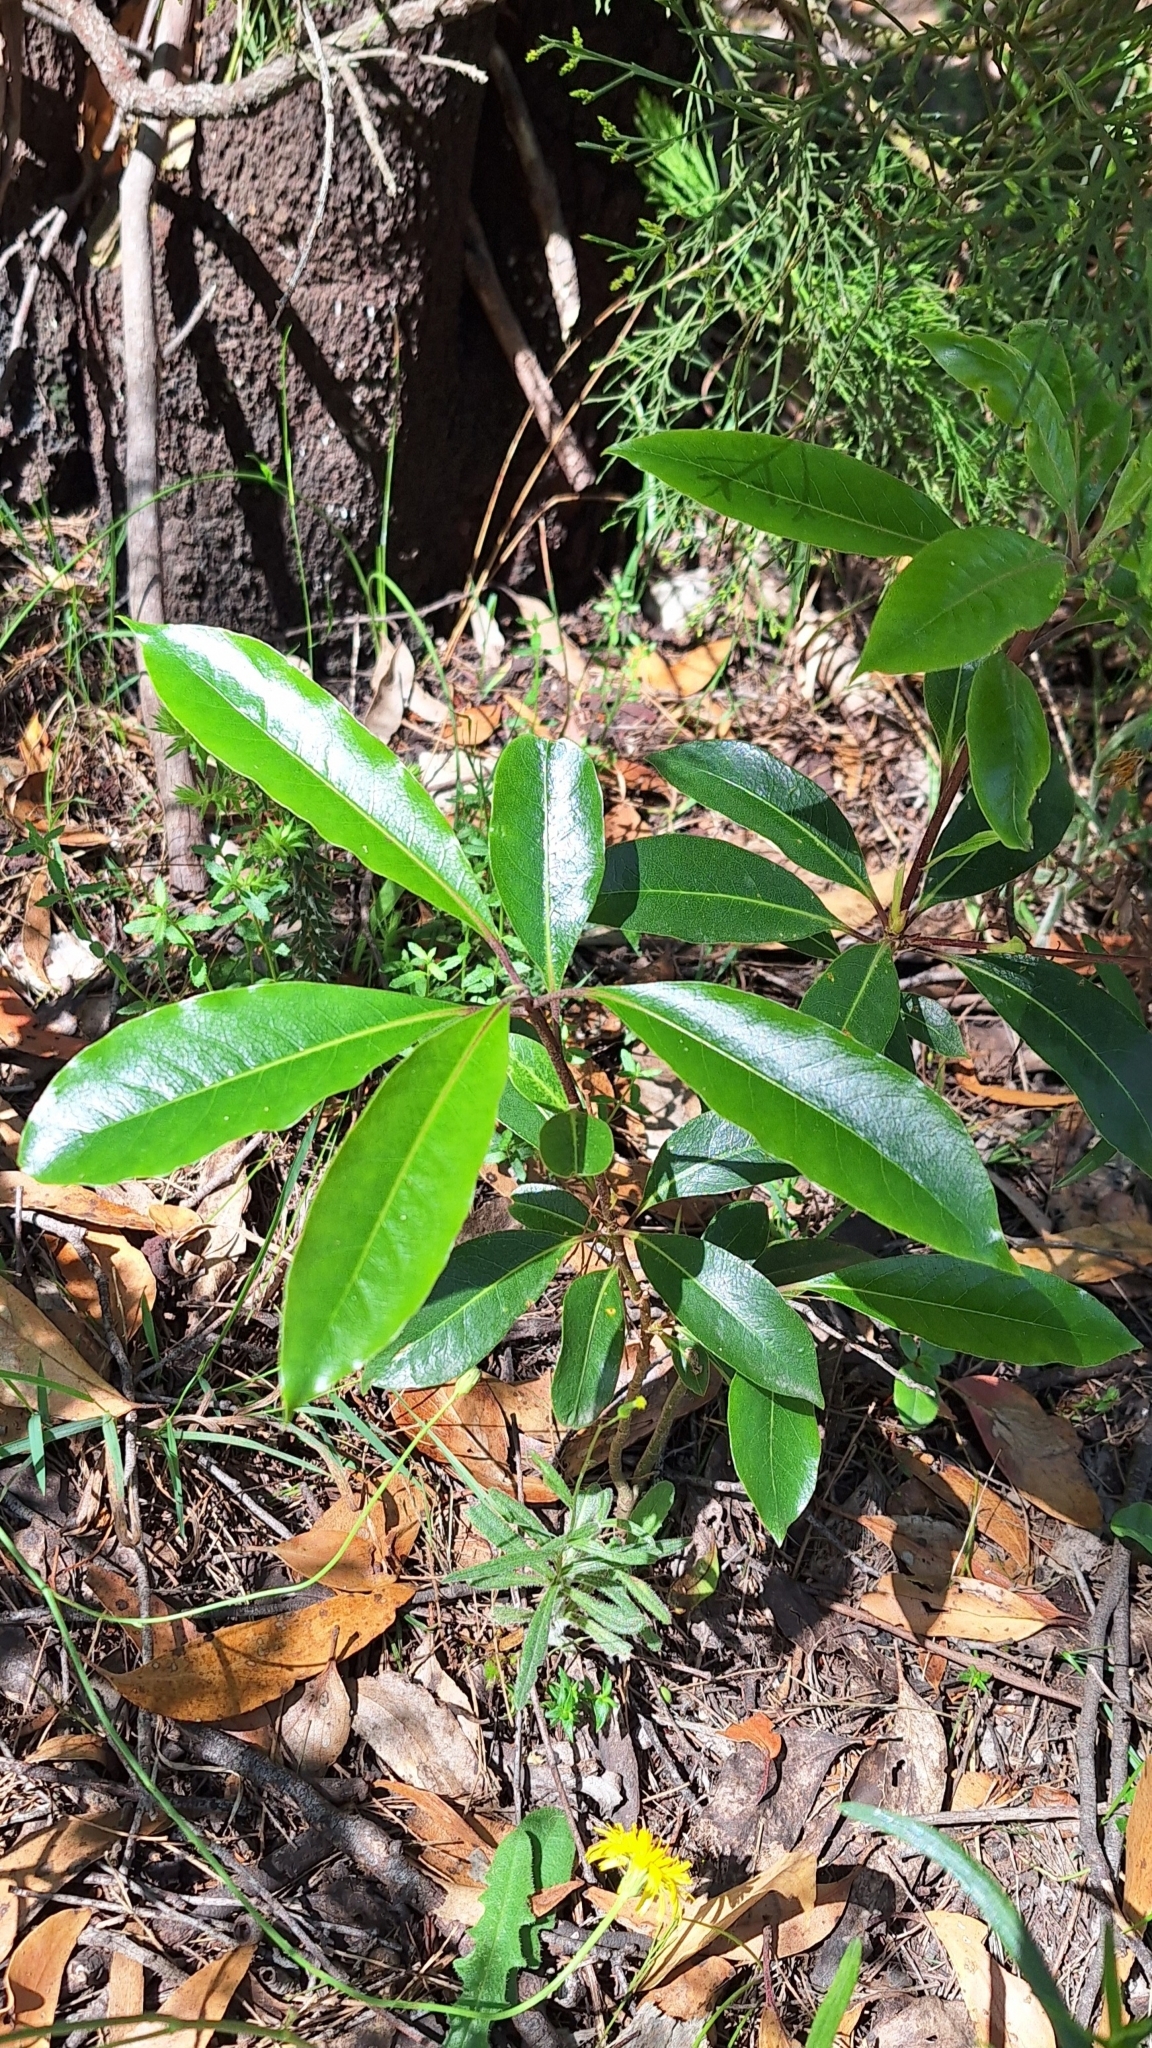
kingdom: Plantae
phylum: Tracheophyta
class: Magnoliopsida
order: Apiales
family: Pittosporaceae
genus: Pittosporum
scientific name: Pittosporum undulatum
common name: Australian cheesewood
